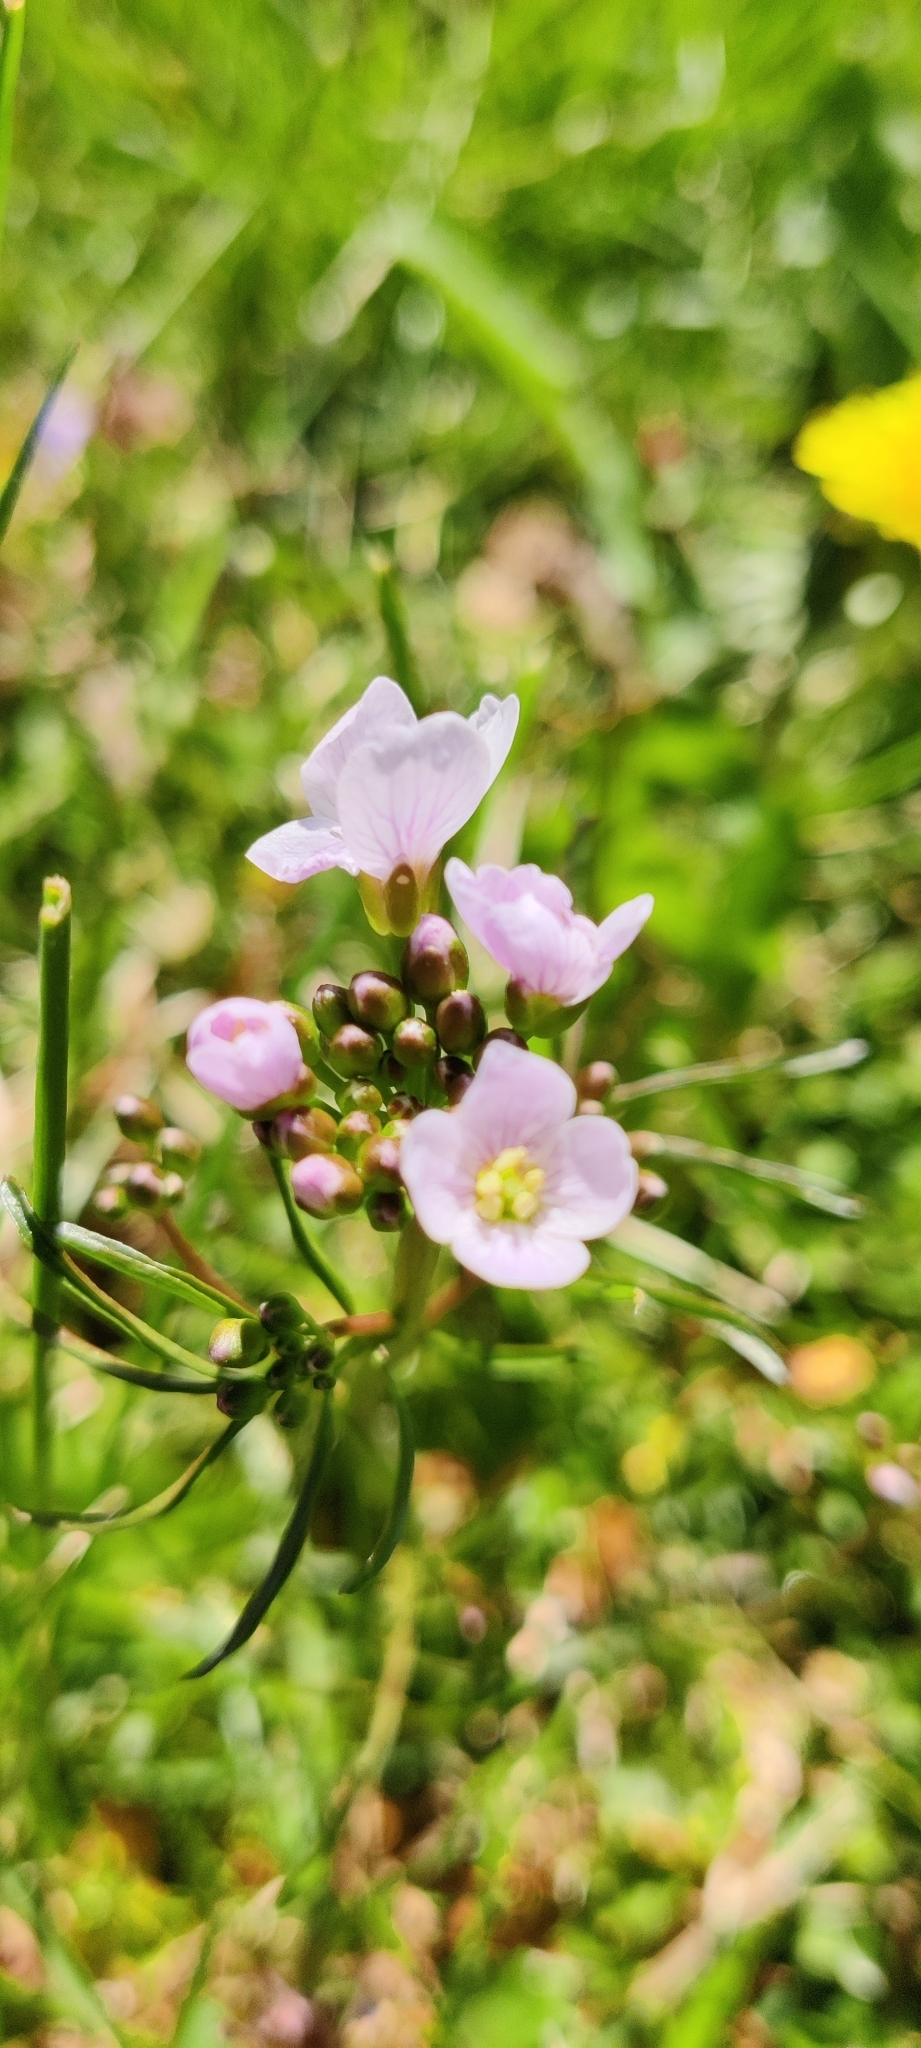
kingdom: Plantae
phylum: Tracheophyta
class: Magnoliopsida
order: Brassicales
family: Brassicaceae
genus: Cardamine
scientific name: Cardamine pratensis
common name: Cuckoo flower
